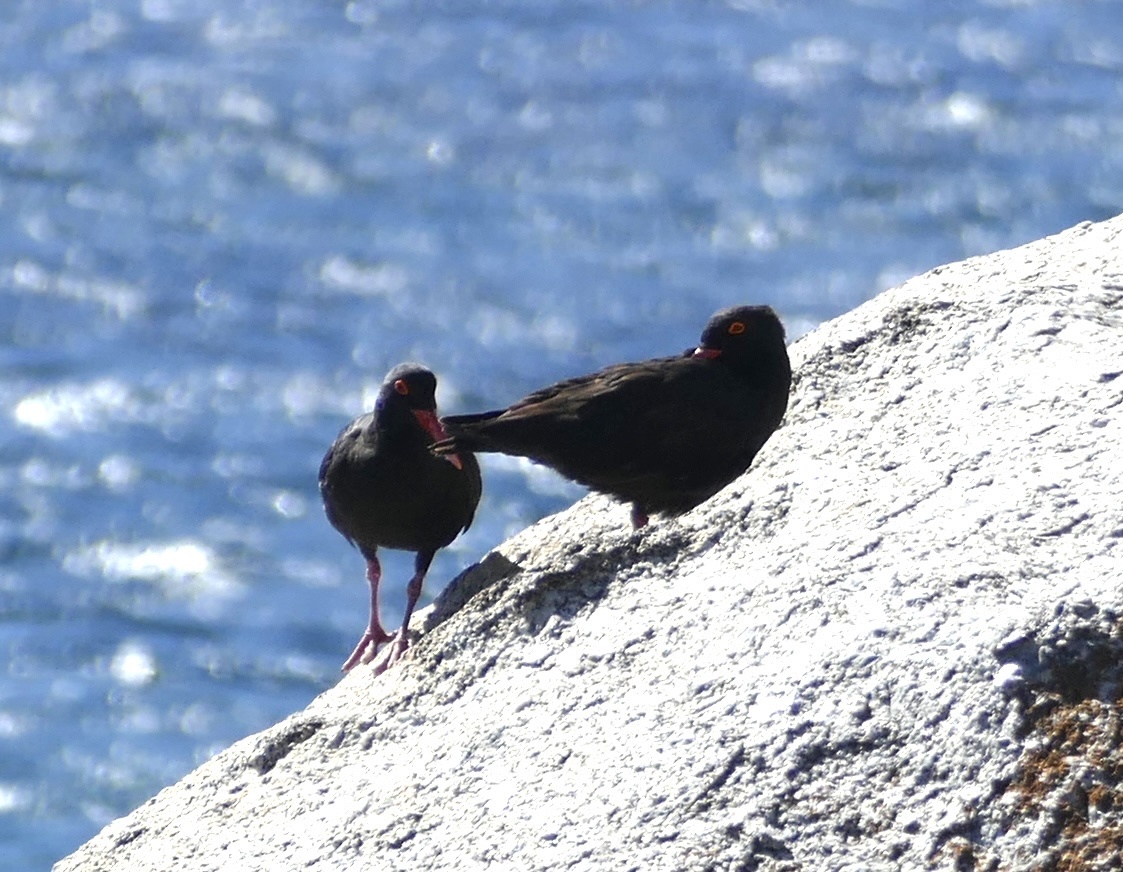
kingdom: Animalia
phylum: Chordata
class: Aves
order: Charadriiformes
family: Haematopodidae
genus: Haematopus
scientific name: Haematopus moquini
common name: African oystercatcher
